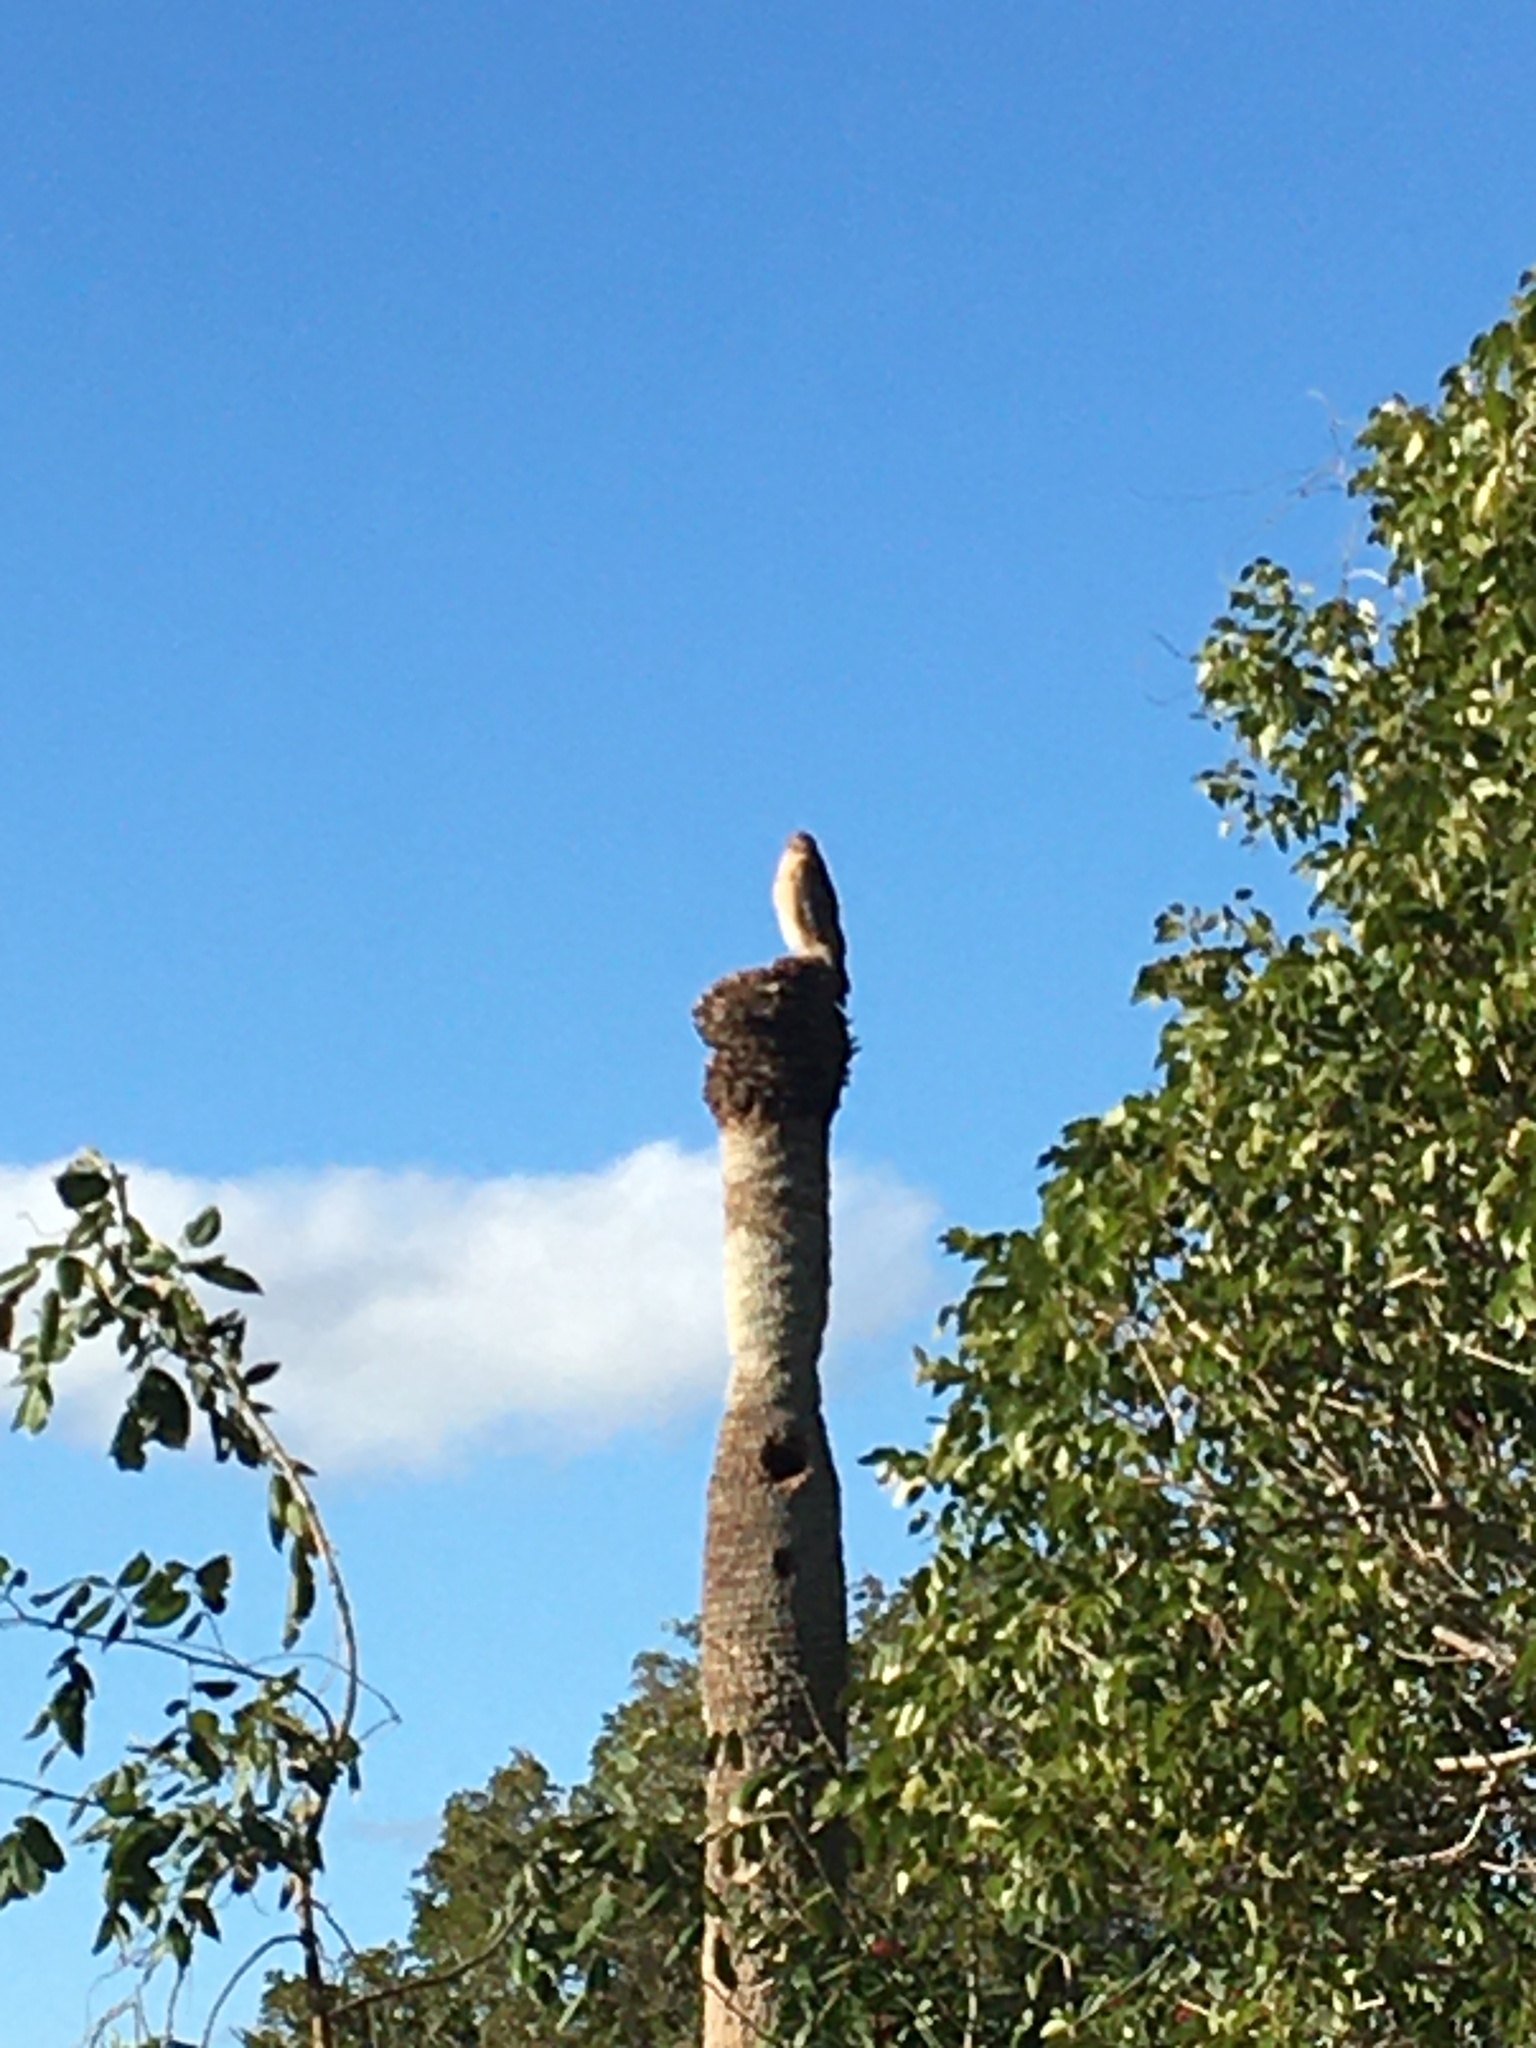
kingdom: Animalia
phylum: Chordata
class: Aves
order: Accipitriformes
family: Accipitridae
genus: Buteo
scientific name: Buteo lineatus
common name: Red-shouldered hawk
